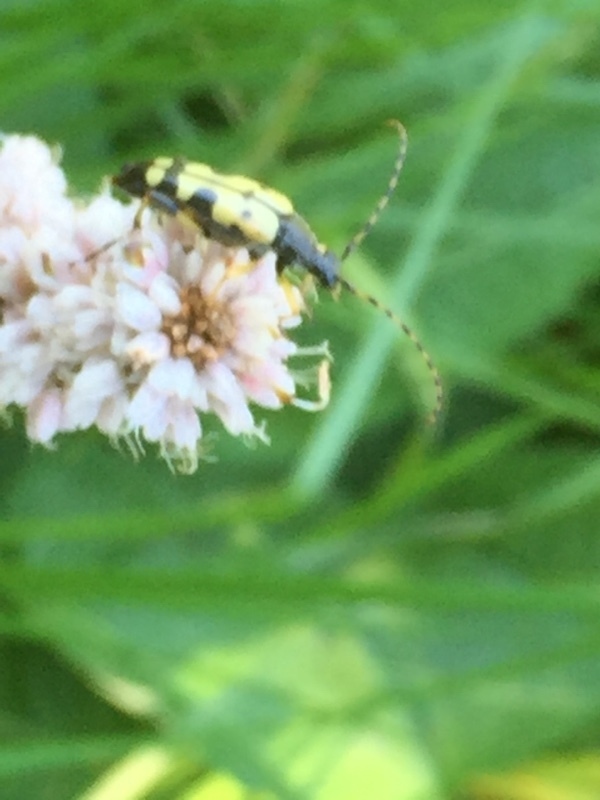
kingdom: Plantae
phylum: Tracheophyta
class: Magnoliopsida
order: Caryophyllales
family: Polygonaceae
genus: Bistorta
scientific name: Bistorta officinalis
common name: Common bistort
